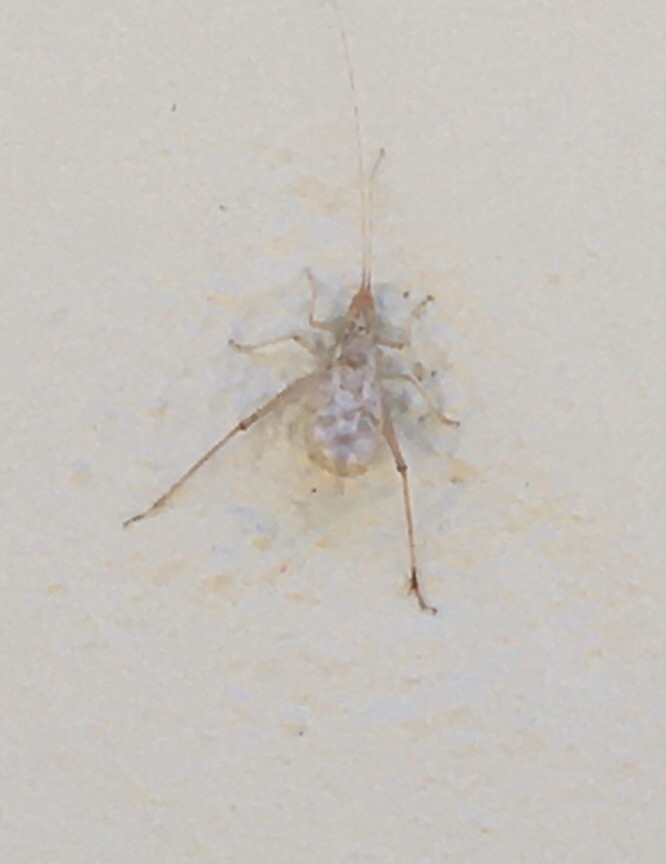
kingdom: Animalia
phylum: Arthropoda
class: Insecta
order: Orthoptera
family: Gryllidae
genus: Oecanthus
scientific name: Oecanthus californicus
